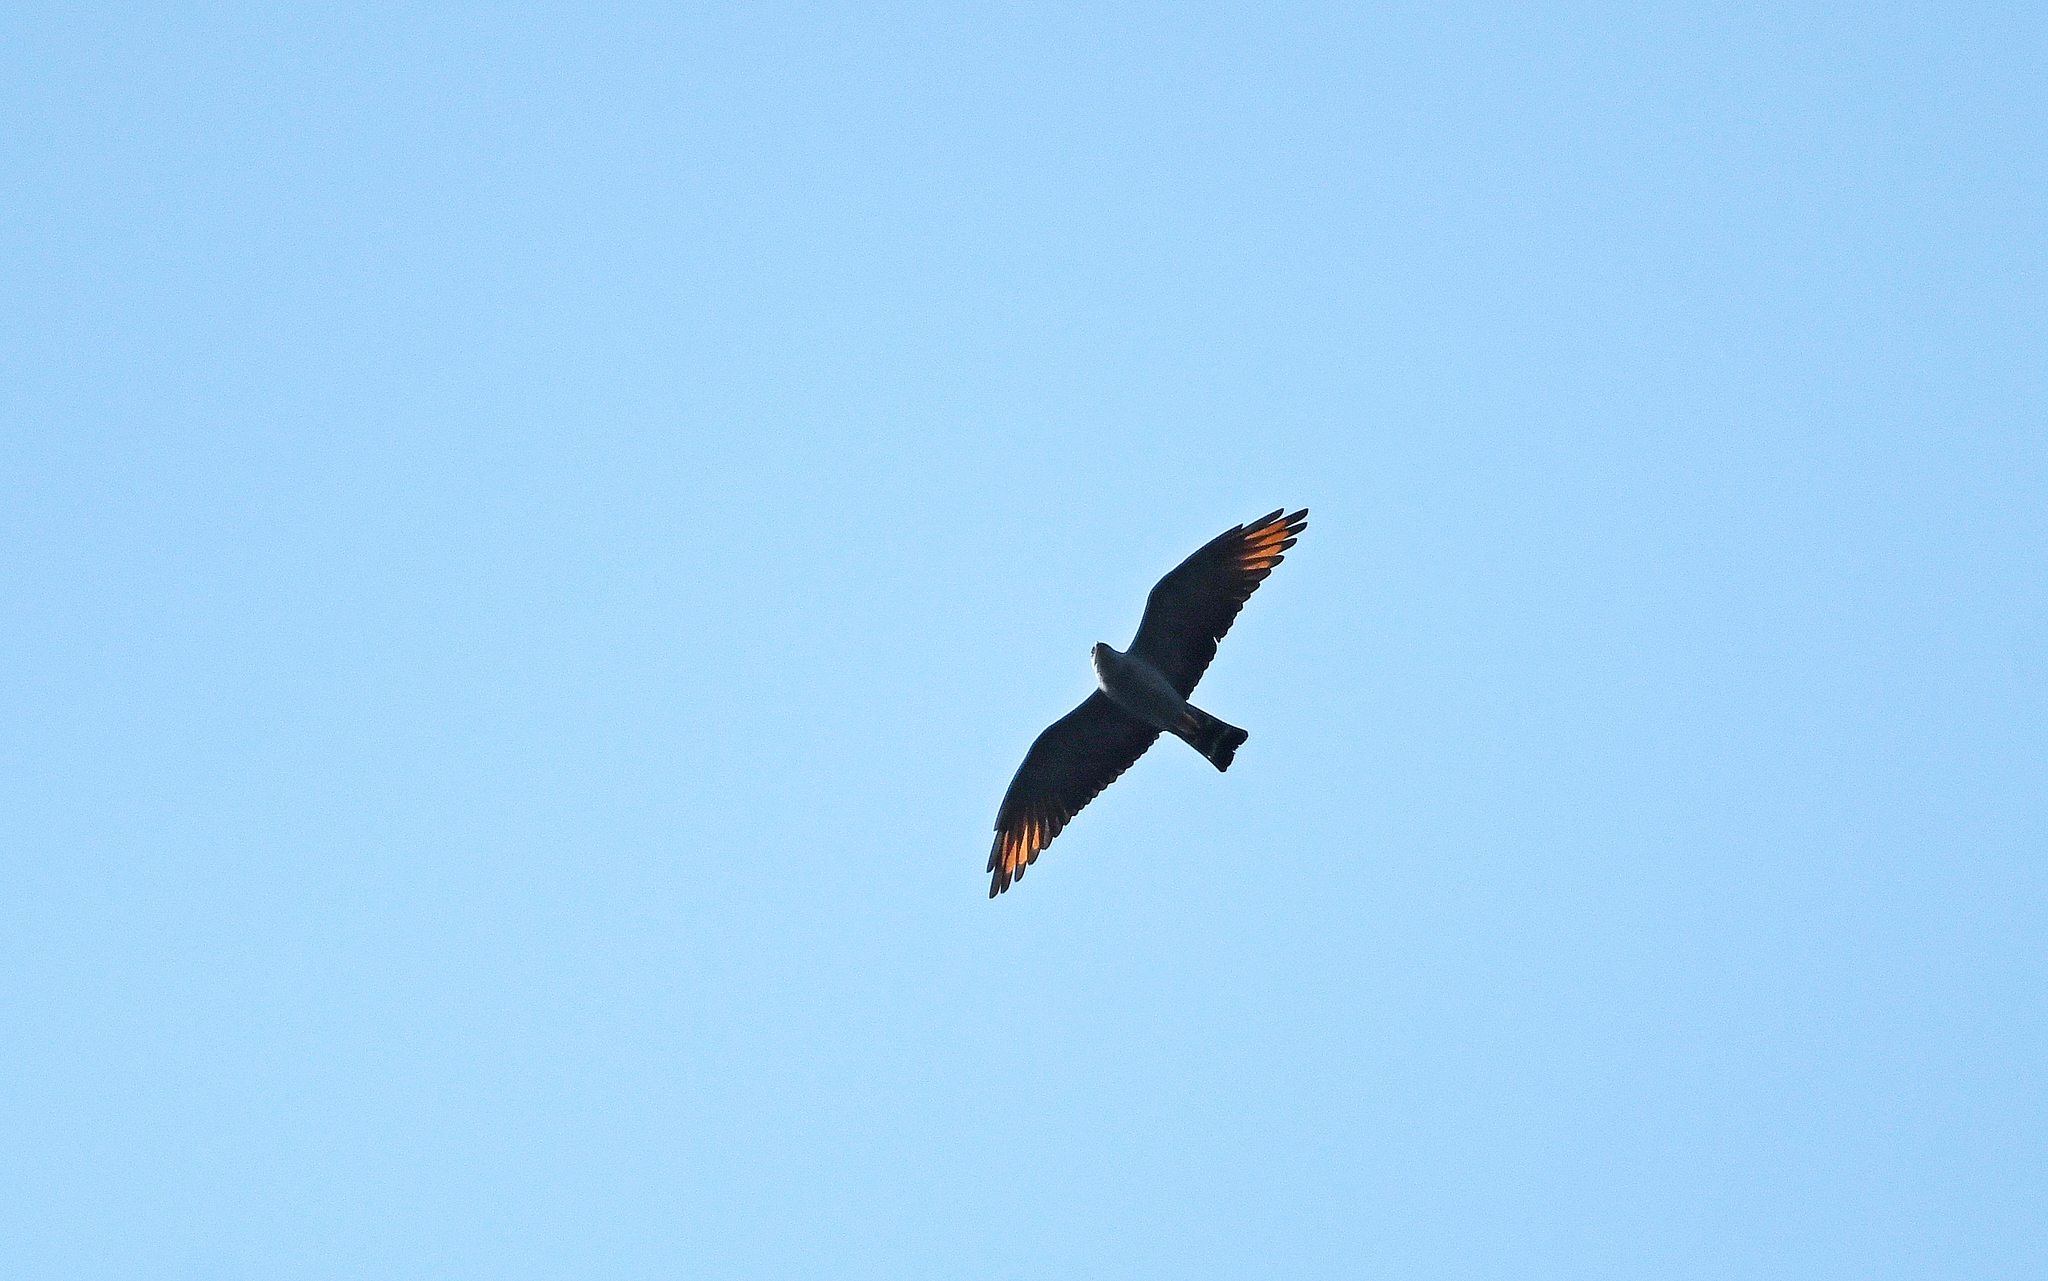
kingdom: Animalia
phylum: Chordata
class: Aves
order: Accipitriformes
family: Accipitridae
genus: Ictinia
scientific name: Ictinia plumbea
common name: Plumbeous kite
